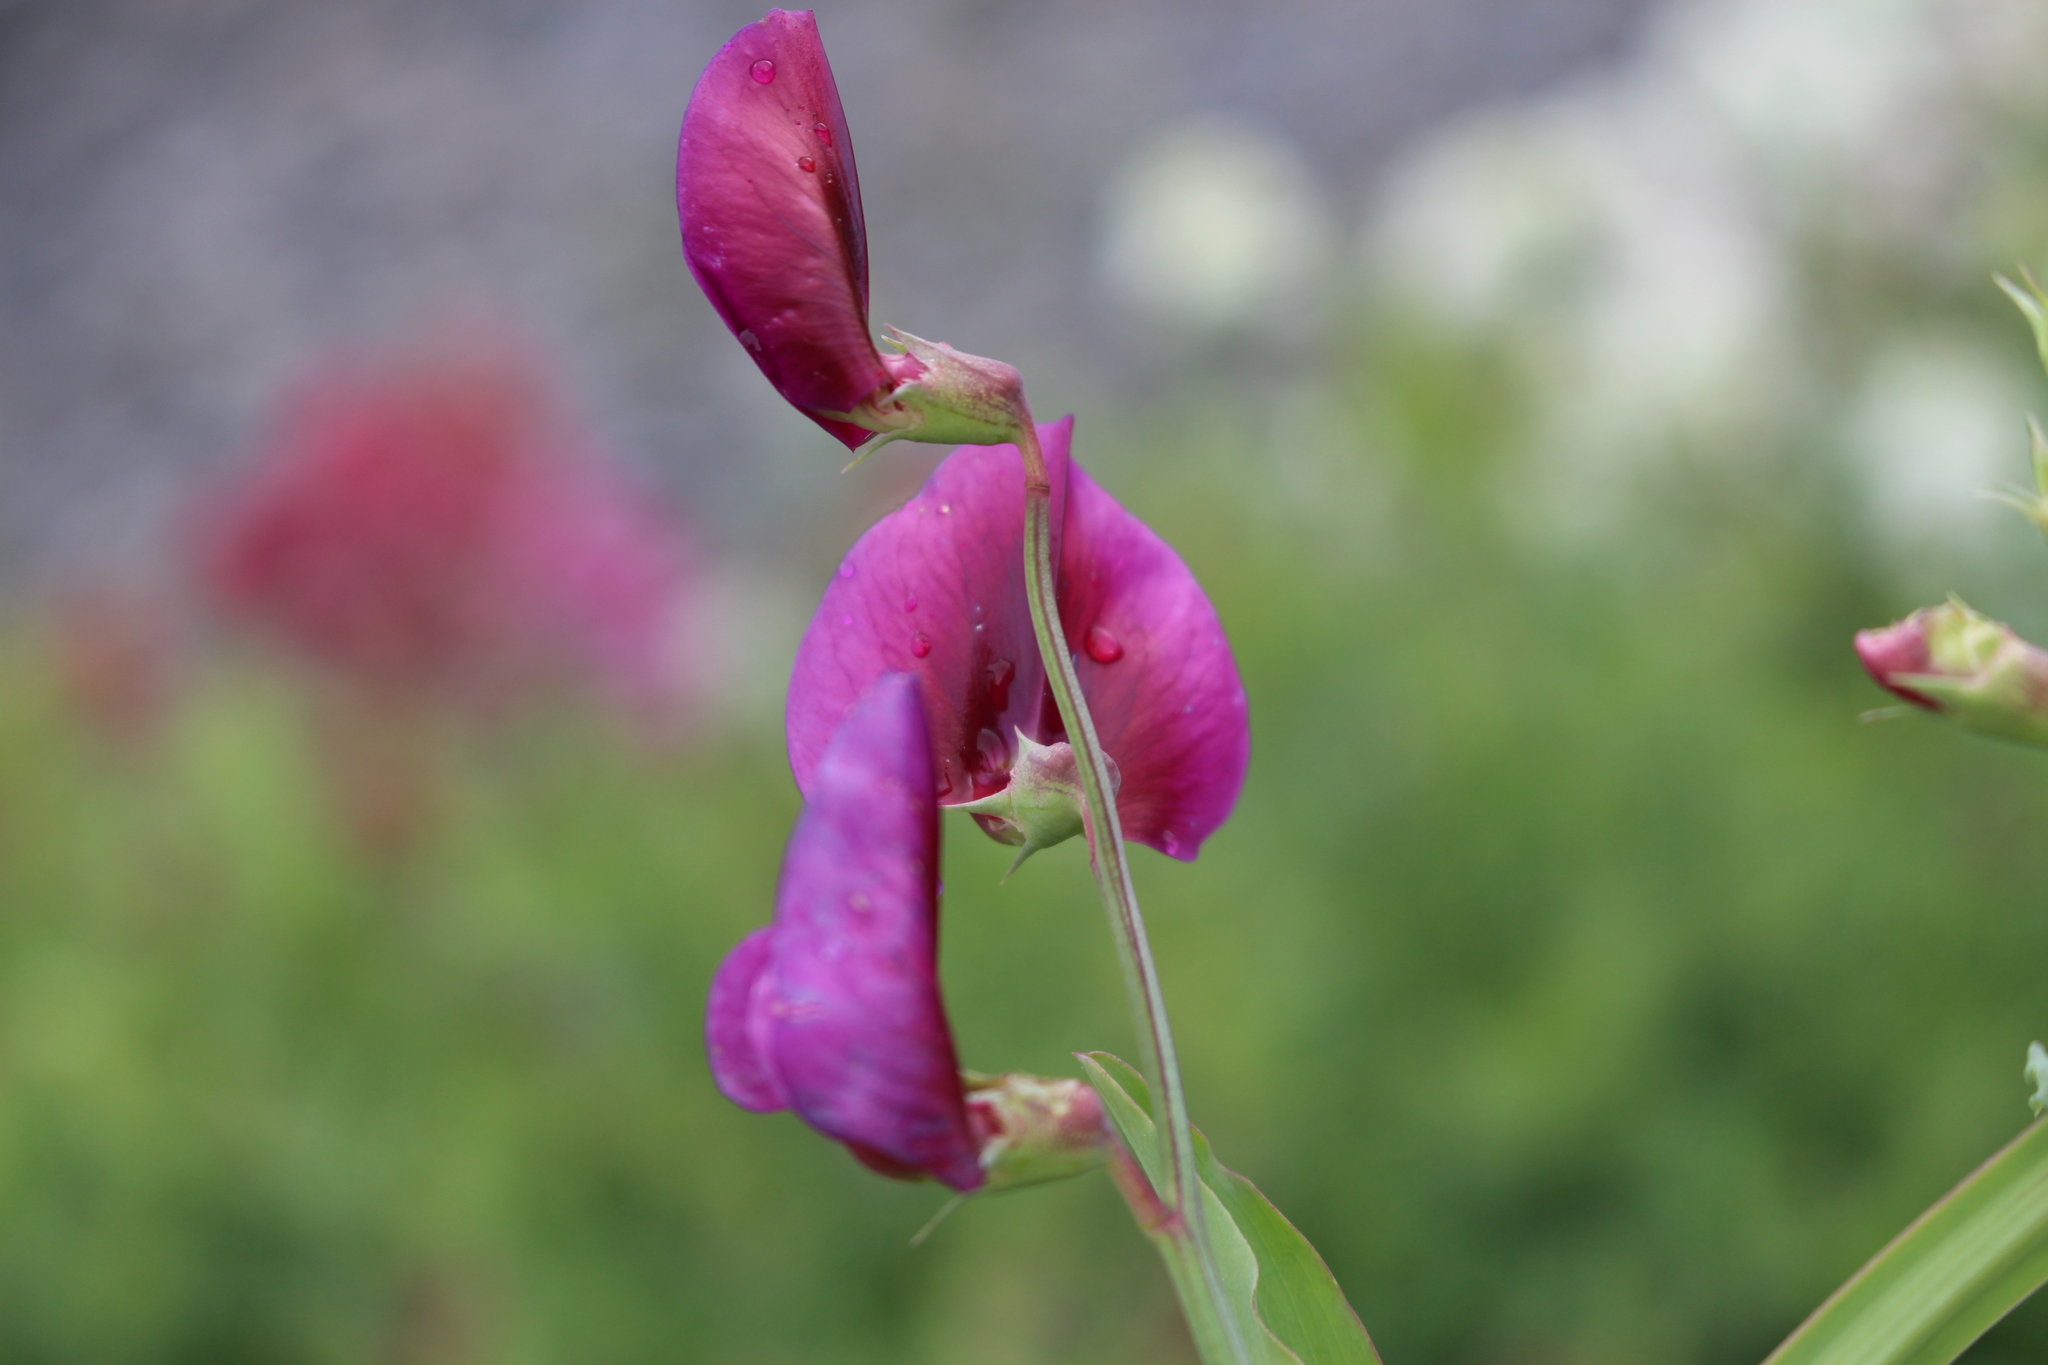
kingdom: Plantae
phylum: Tracheophyta
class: Magnoliopsida
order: Fabales
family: Fabaceae
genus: Lathyrus
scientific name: Lathyrus tingitanus
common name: Tangier pea
